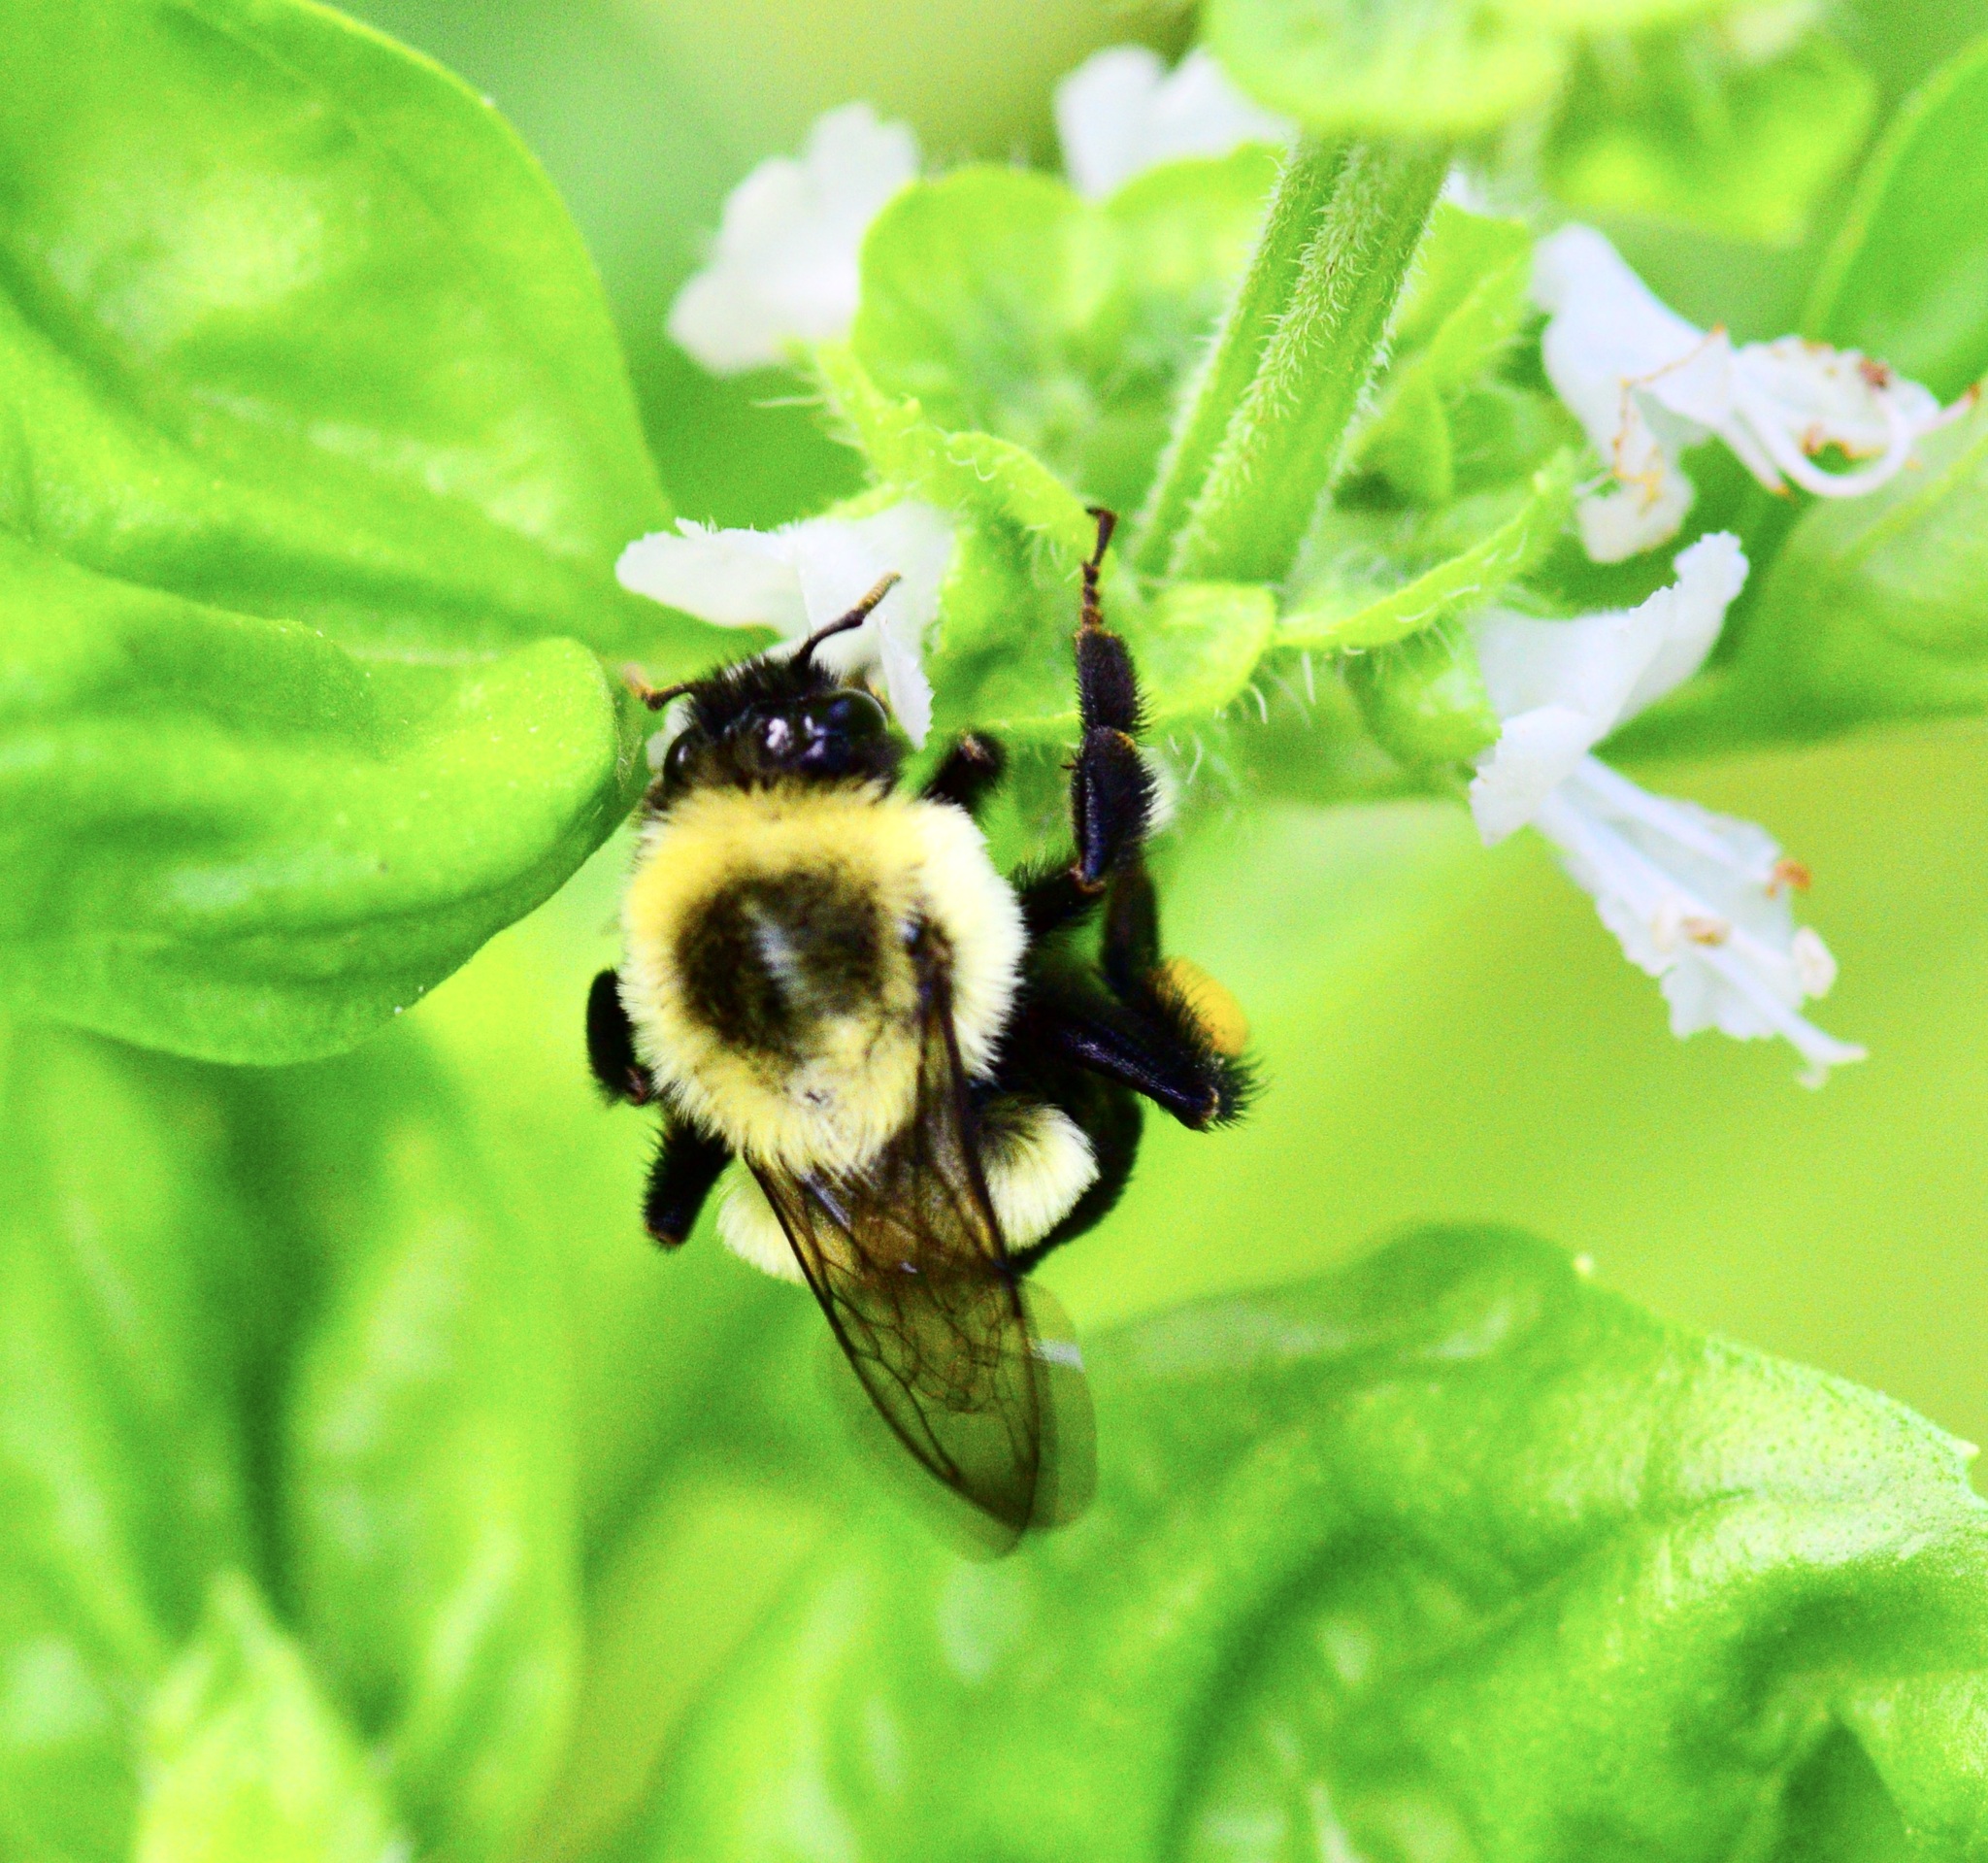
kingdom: Animalia
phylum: Arthropoda
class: Insecta
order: Hymenoptera
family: Apidae
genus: Bombus
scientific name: Bombus impatiens
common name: Common eastern bumble bee
